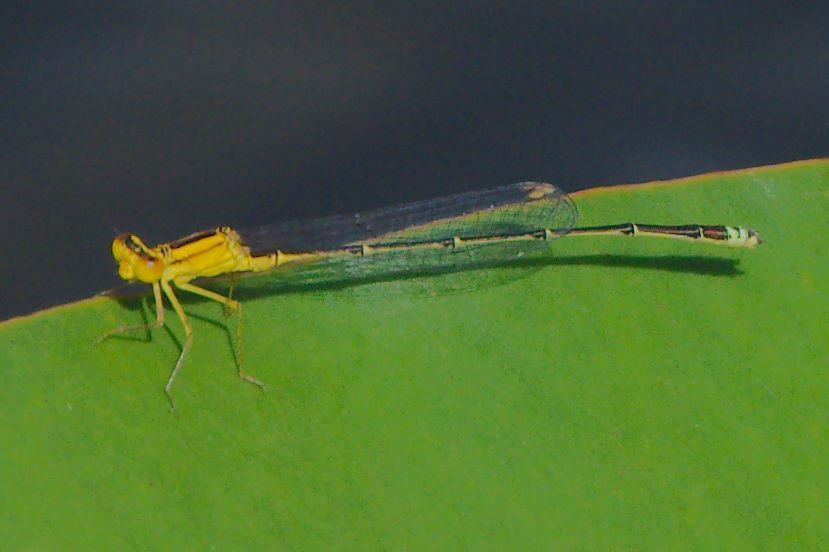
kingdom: Animalia
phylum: Arthropoda
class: Insecta
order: Odonata
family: Coenagrionidae
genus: Enallagma
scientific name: Enallagma vesperum
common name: Vesper bluet
